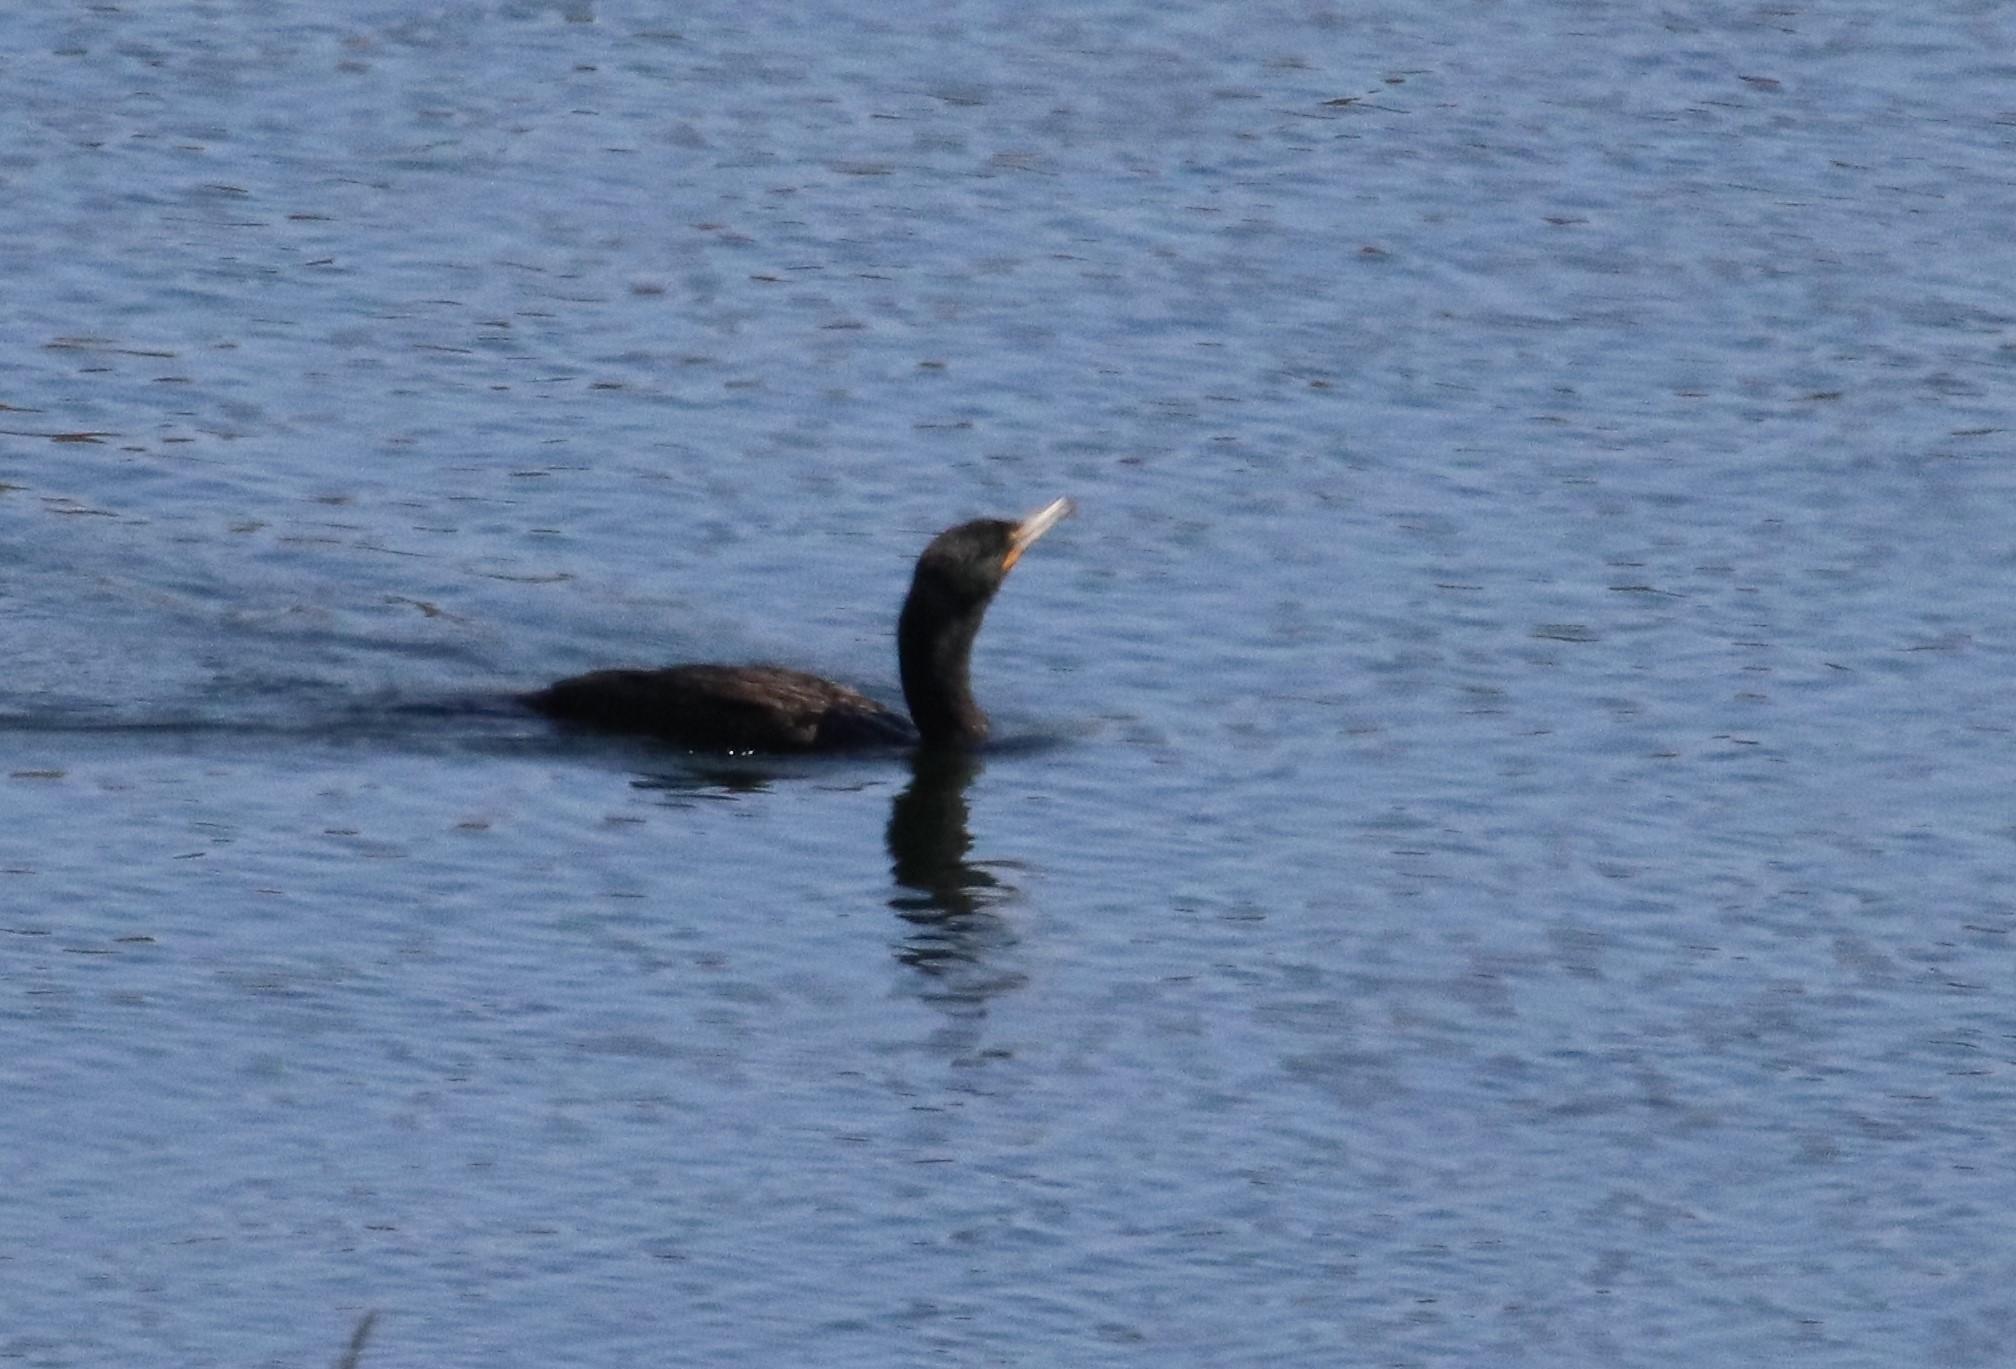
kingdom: Animalia
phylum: Chordata
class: Aves
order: Suliformes
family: Phalacrocoracidae
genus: Phalacrocorax
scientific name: Phalacrocorax auritus
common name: Double-crested cormorant
